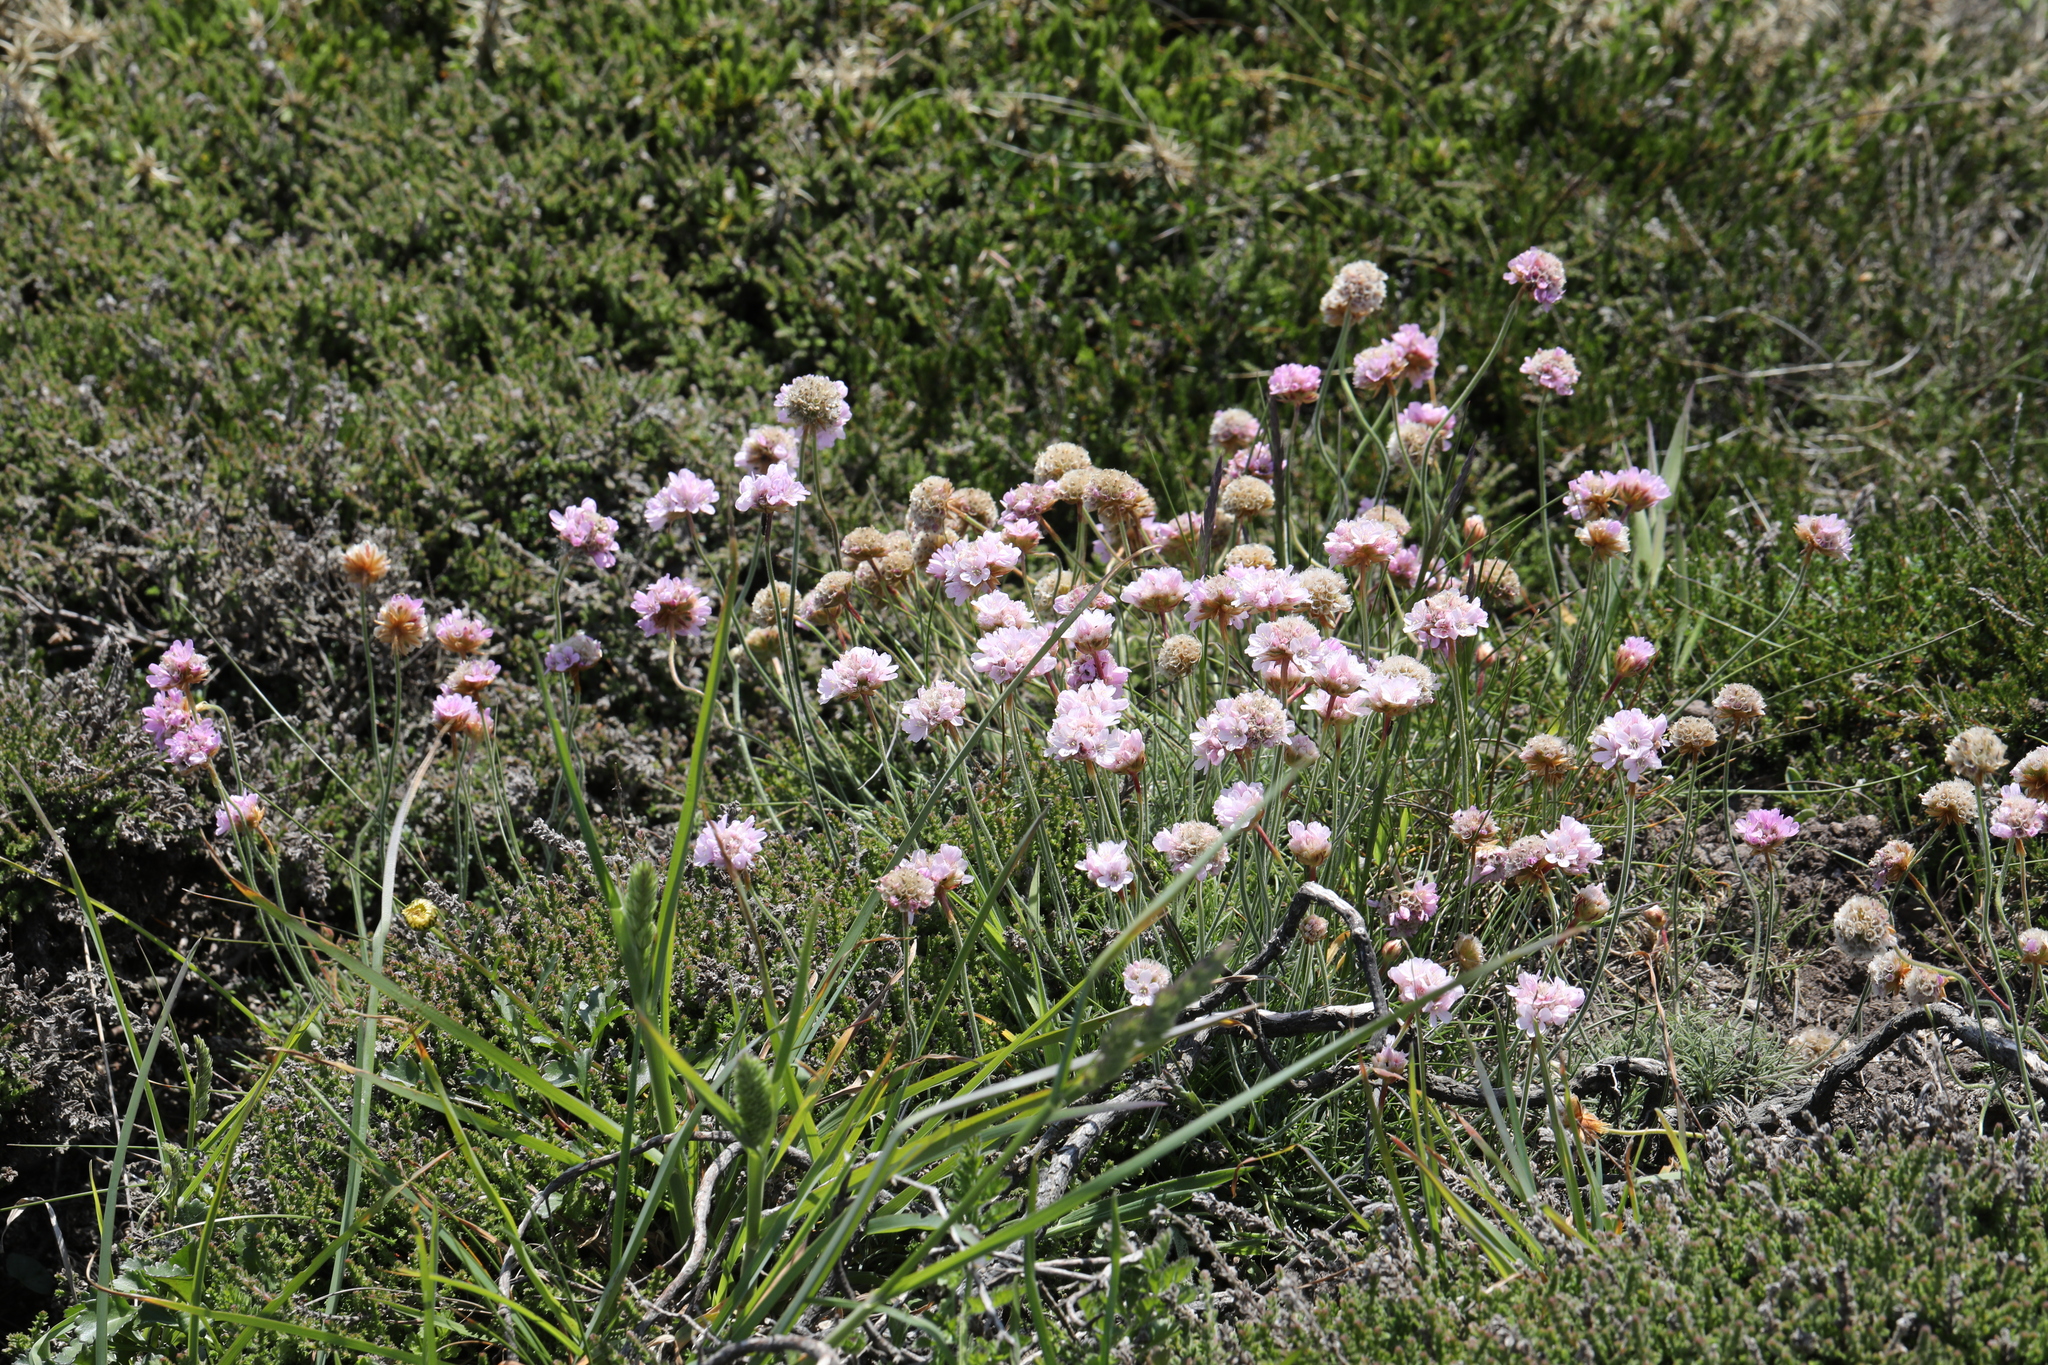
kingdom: Plantae
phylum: Tracheophyta
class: Magnoliopsida
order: Caryophyllales
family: Plumbaginaceae
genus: Armeria
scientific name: Armeria maritima
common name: Thrift
